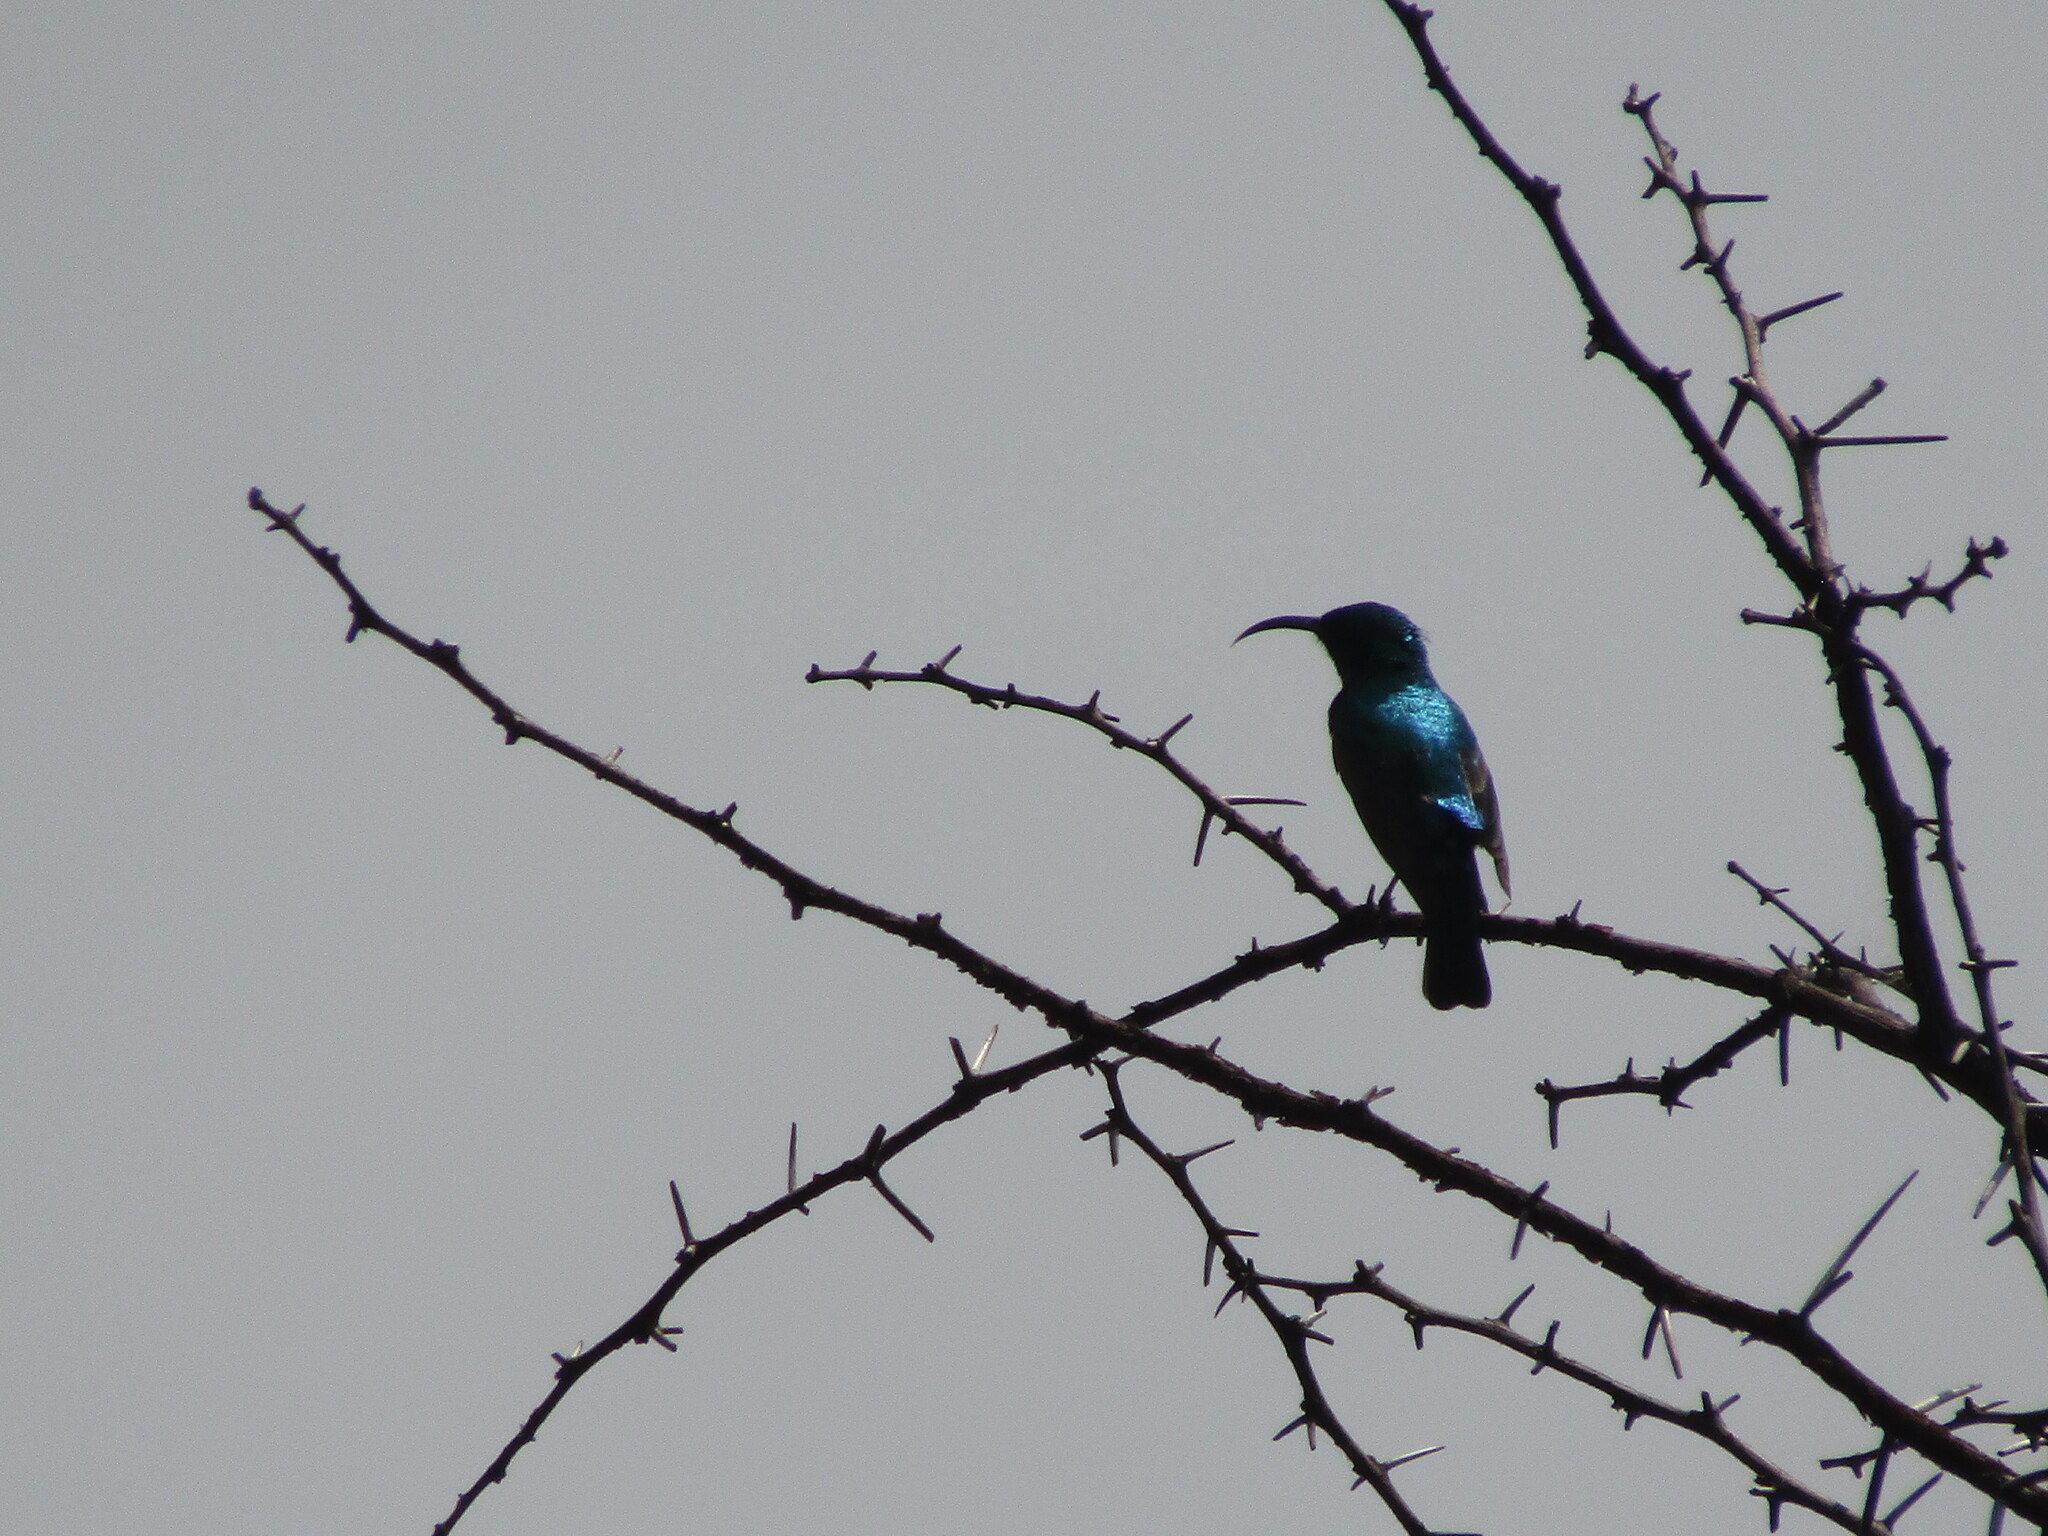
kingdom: Animalia
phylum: Chordata
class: Aves
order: Passeriformes
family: Nectariniidae
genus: Cinnyris
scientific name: Cinnyris talatala
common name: White-bellied sunbird
